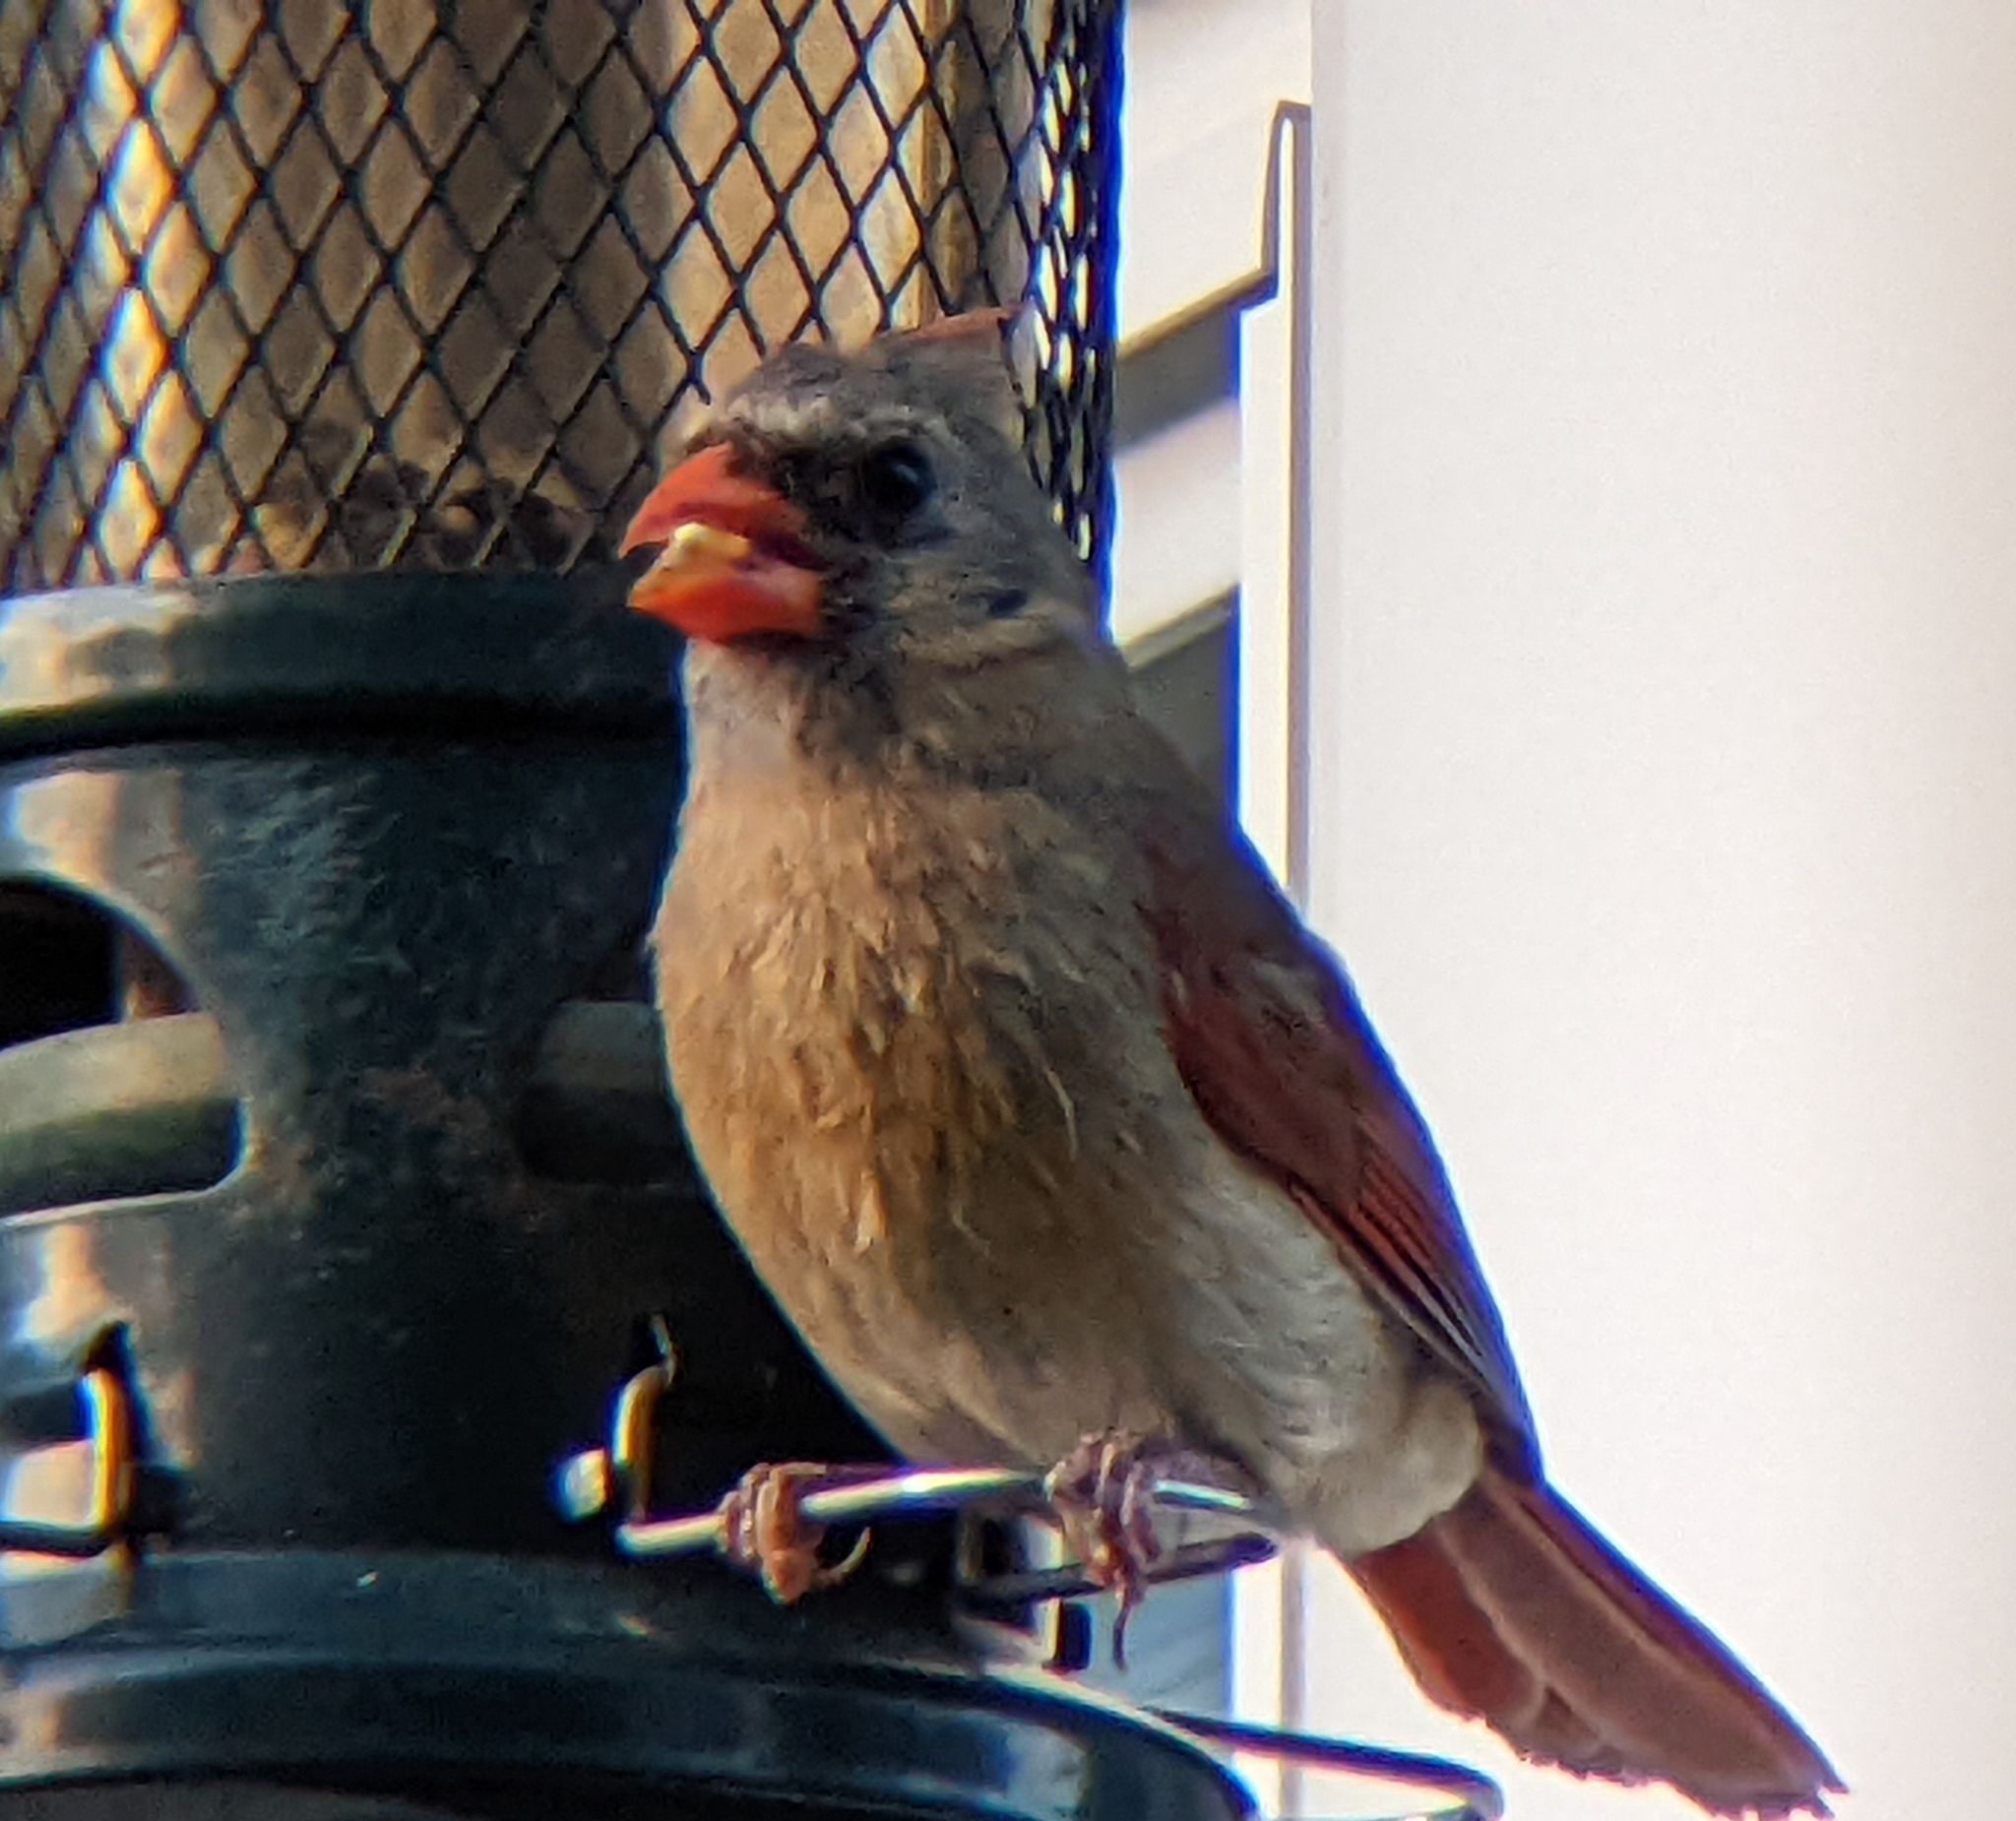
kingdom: Animalia
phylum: Chordata
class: Aves
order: Passeriformes
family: Cardinalidae
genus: Cardinalis
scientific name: Cardinalis cardinalis
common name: Northern cardinal
